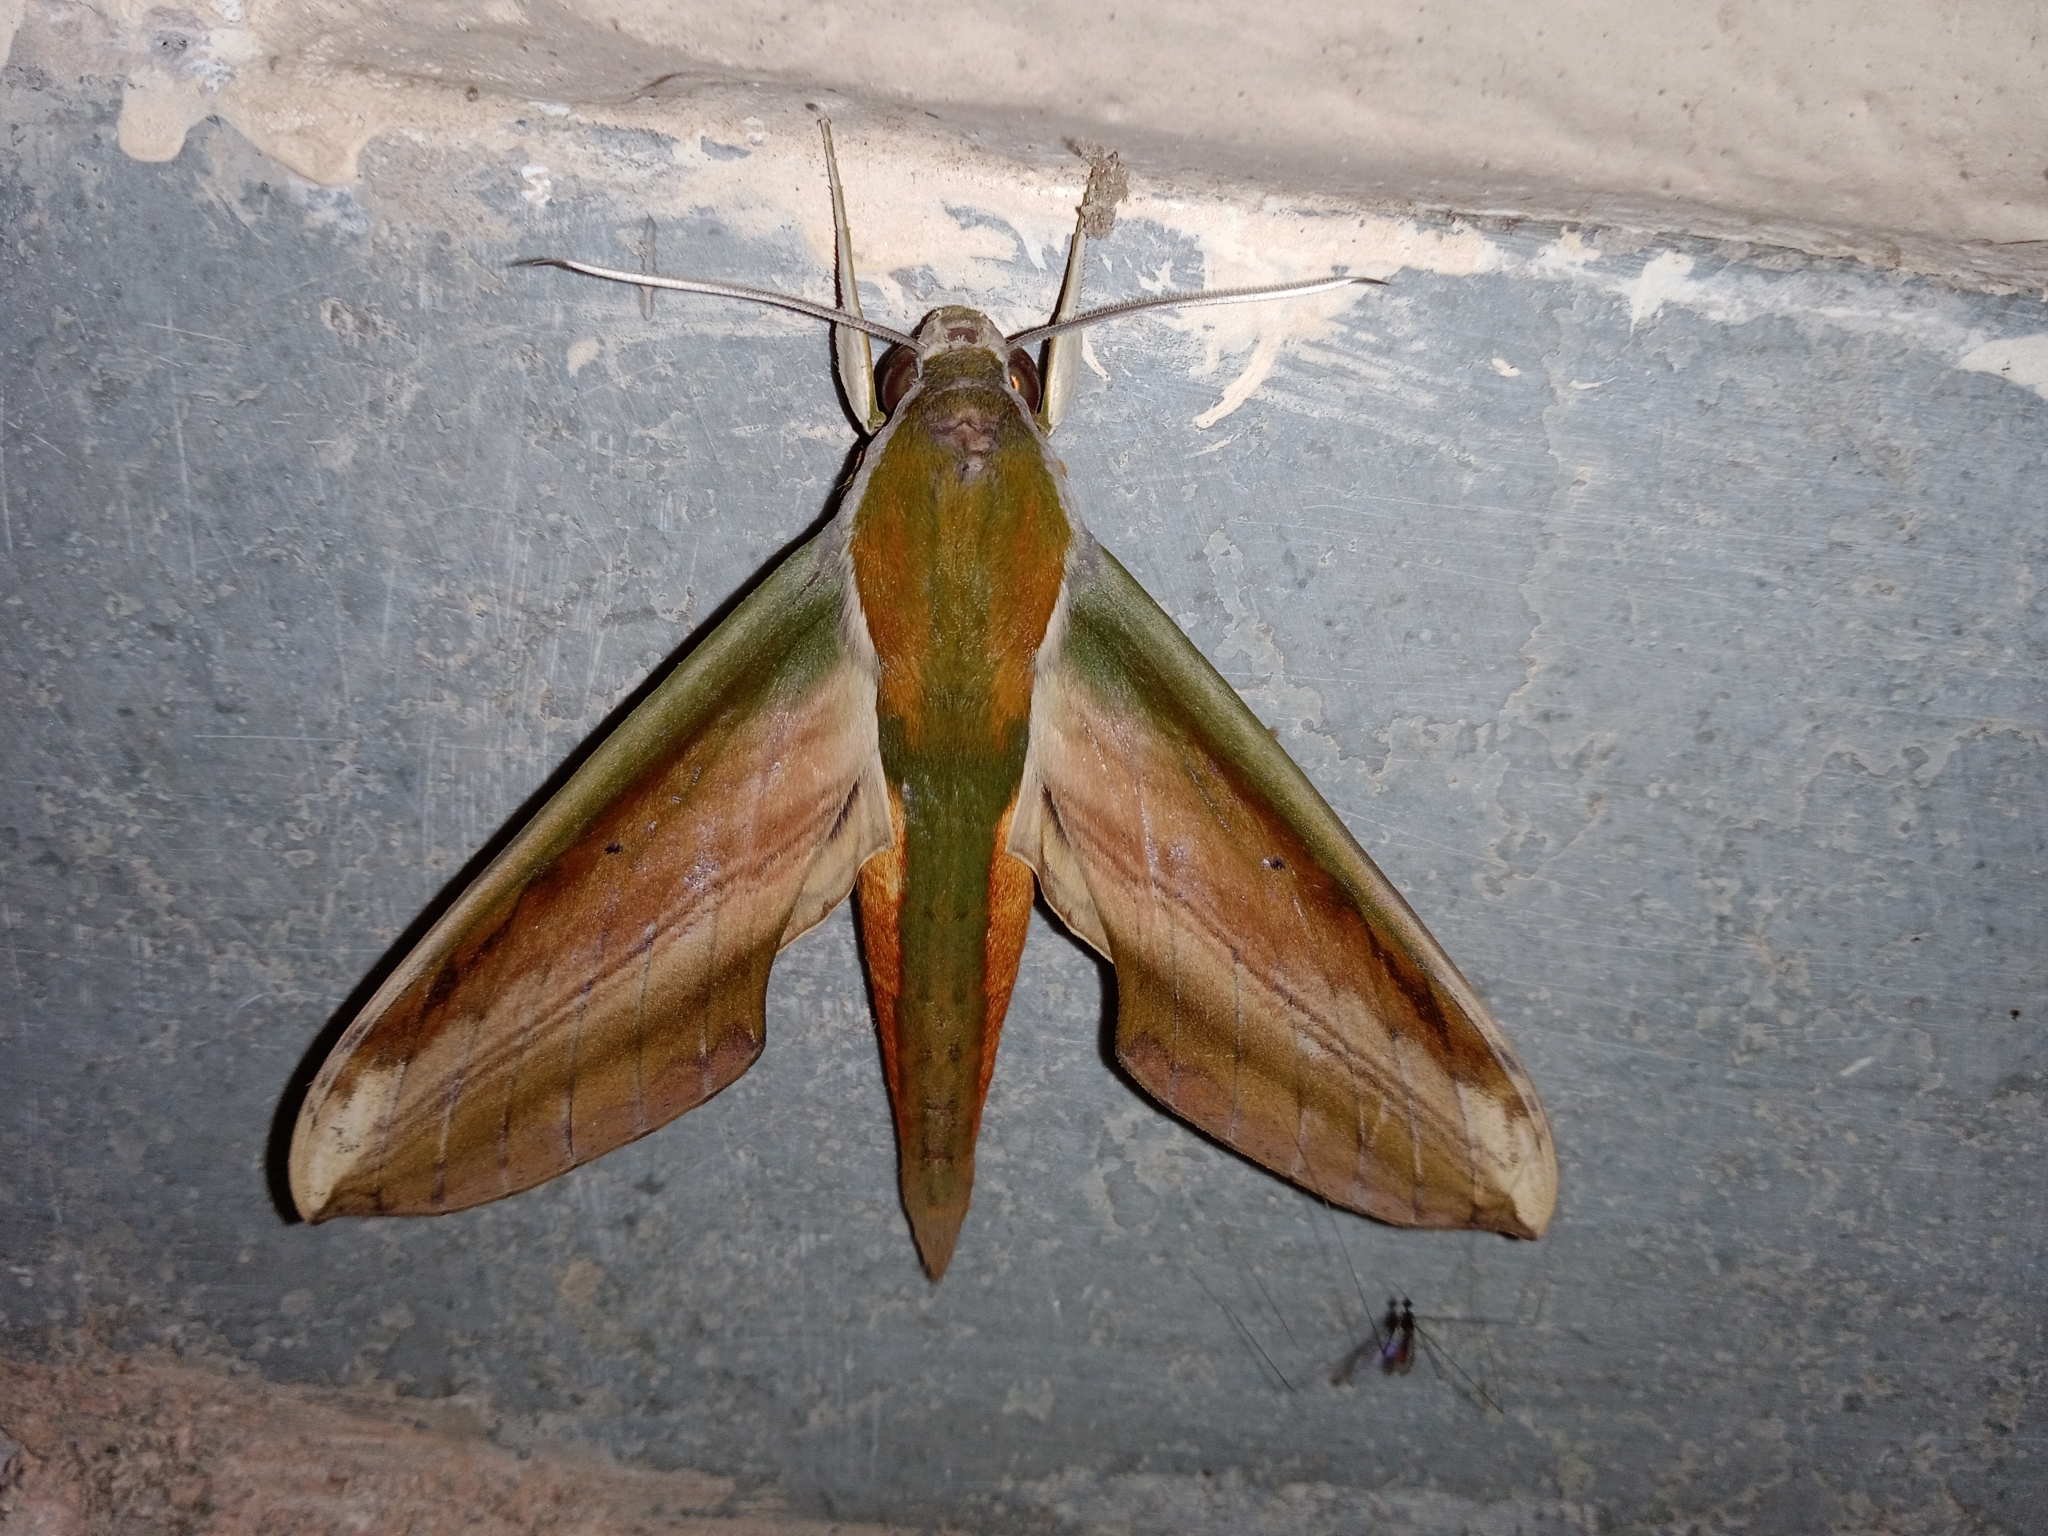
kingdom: Animalia
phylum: Arthropoda
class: Insecta
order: Lepidoptera
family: Sphingidae
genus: Theretra
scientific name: Theretra nessus
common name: Yam hawk moth
